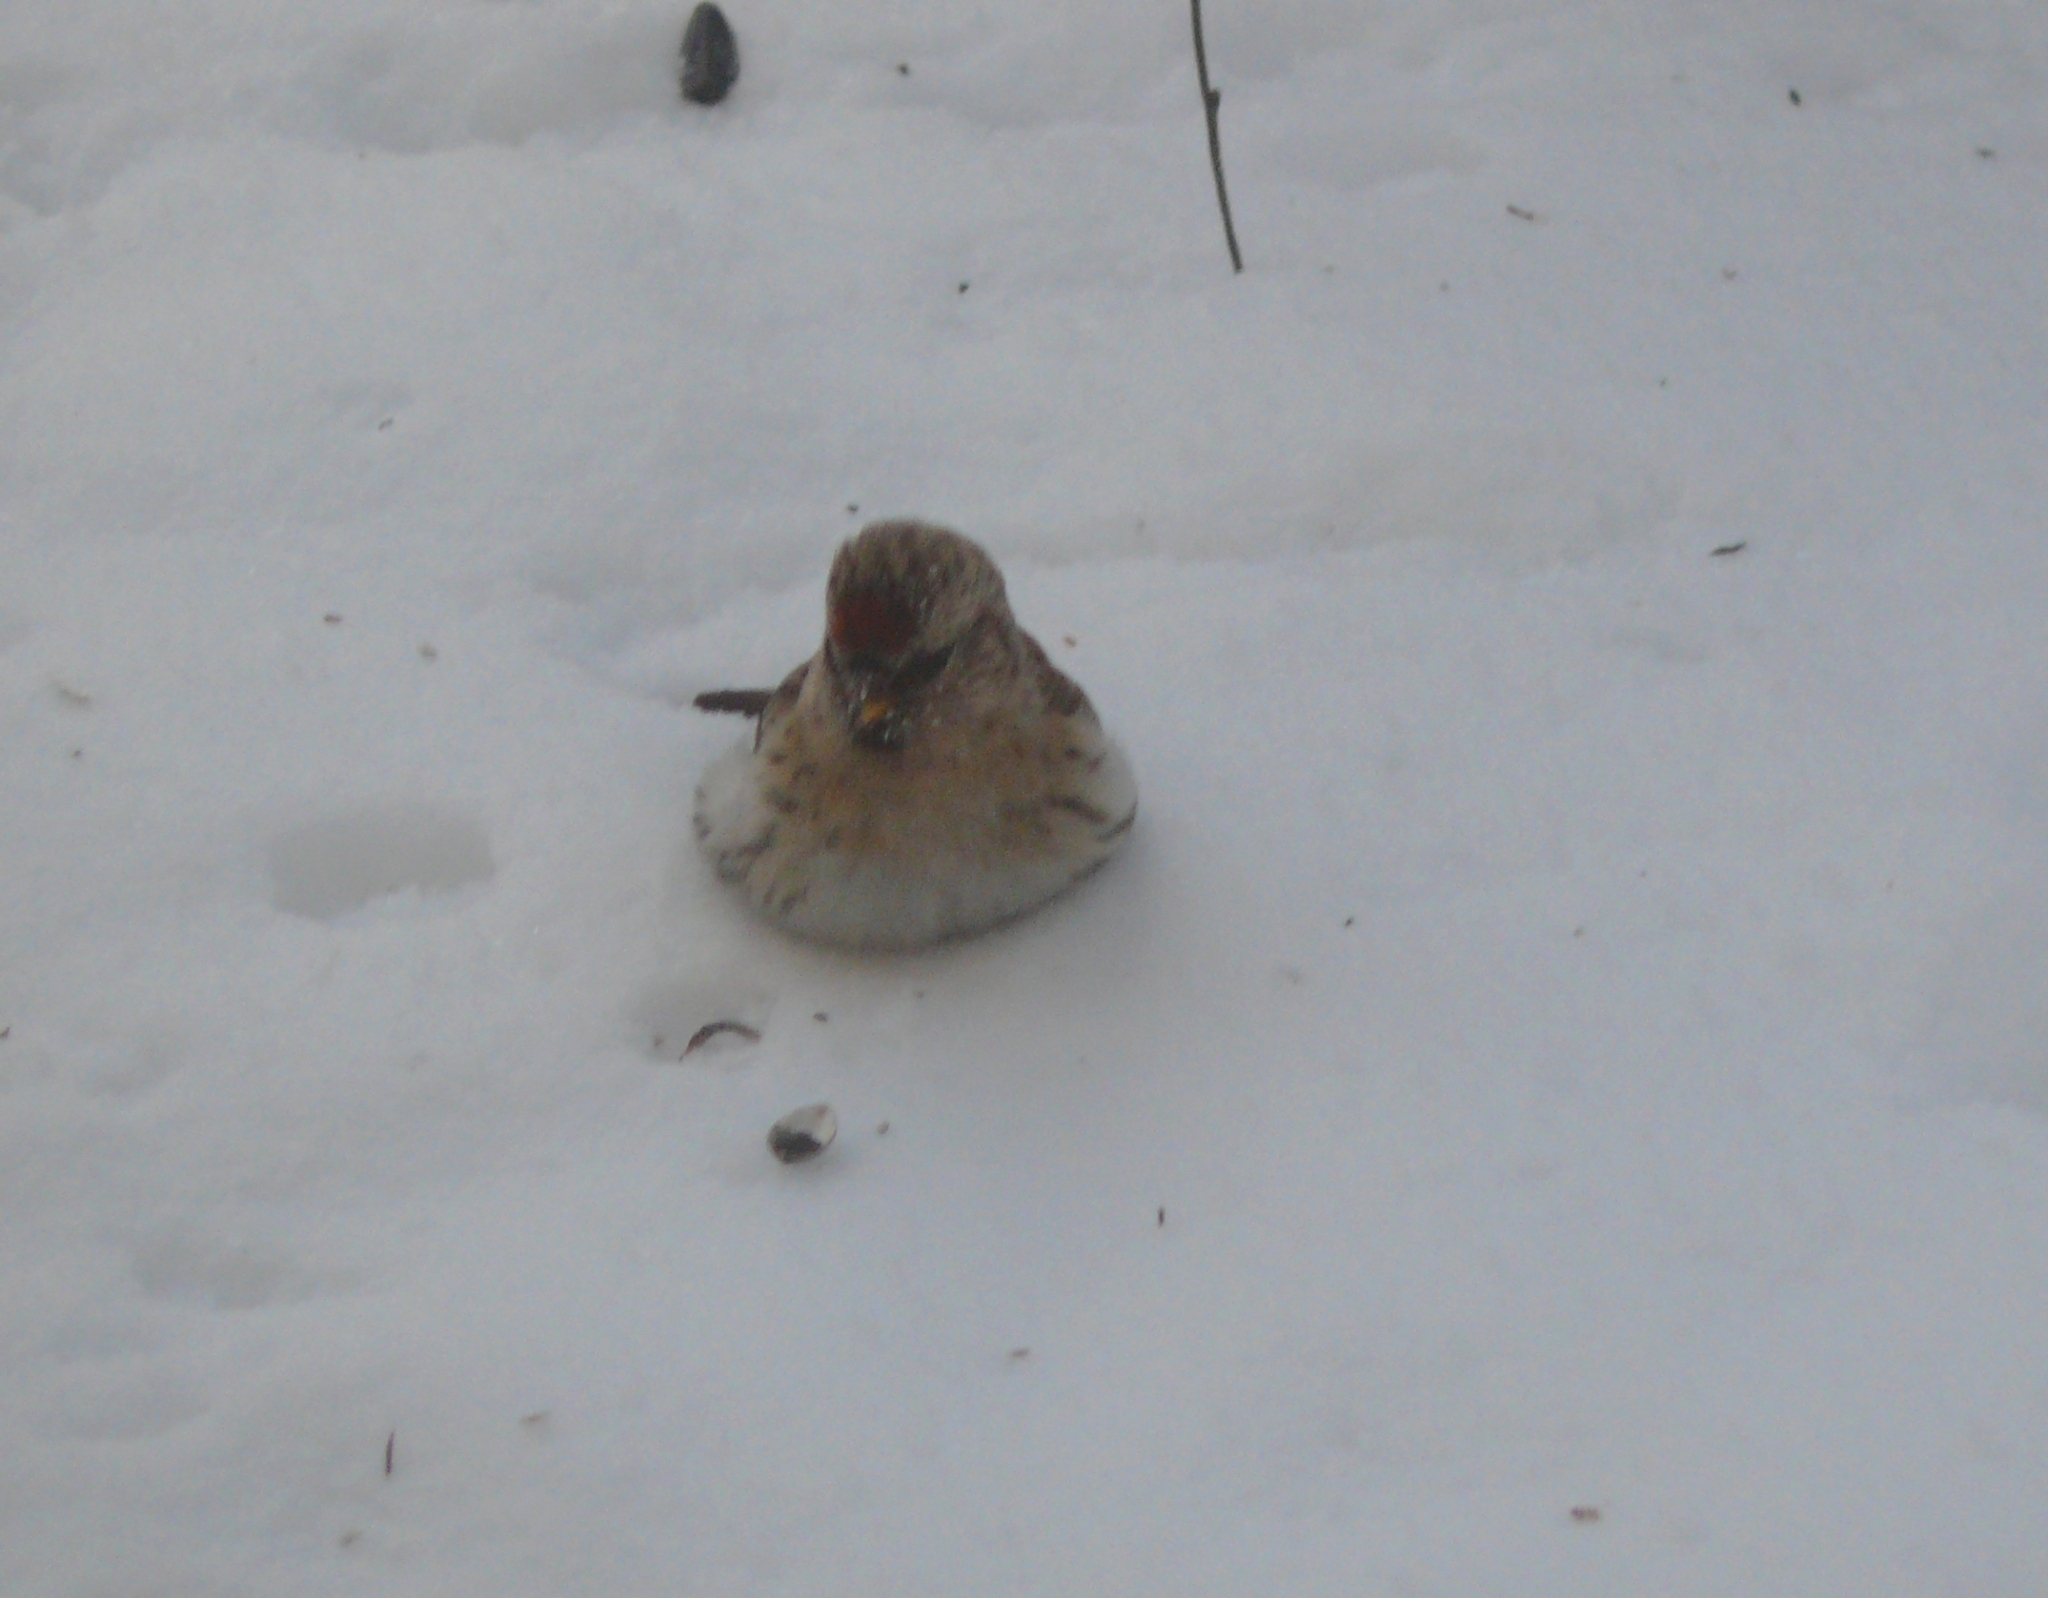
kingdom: Animalia
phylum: Chordata
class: Aves
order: Passeriformes
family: Fringillidae
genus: Acanthis
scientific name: Acanthis hornemanni
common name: Arctic redpoll
